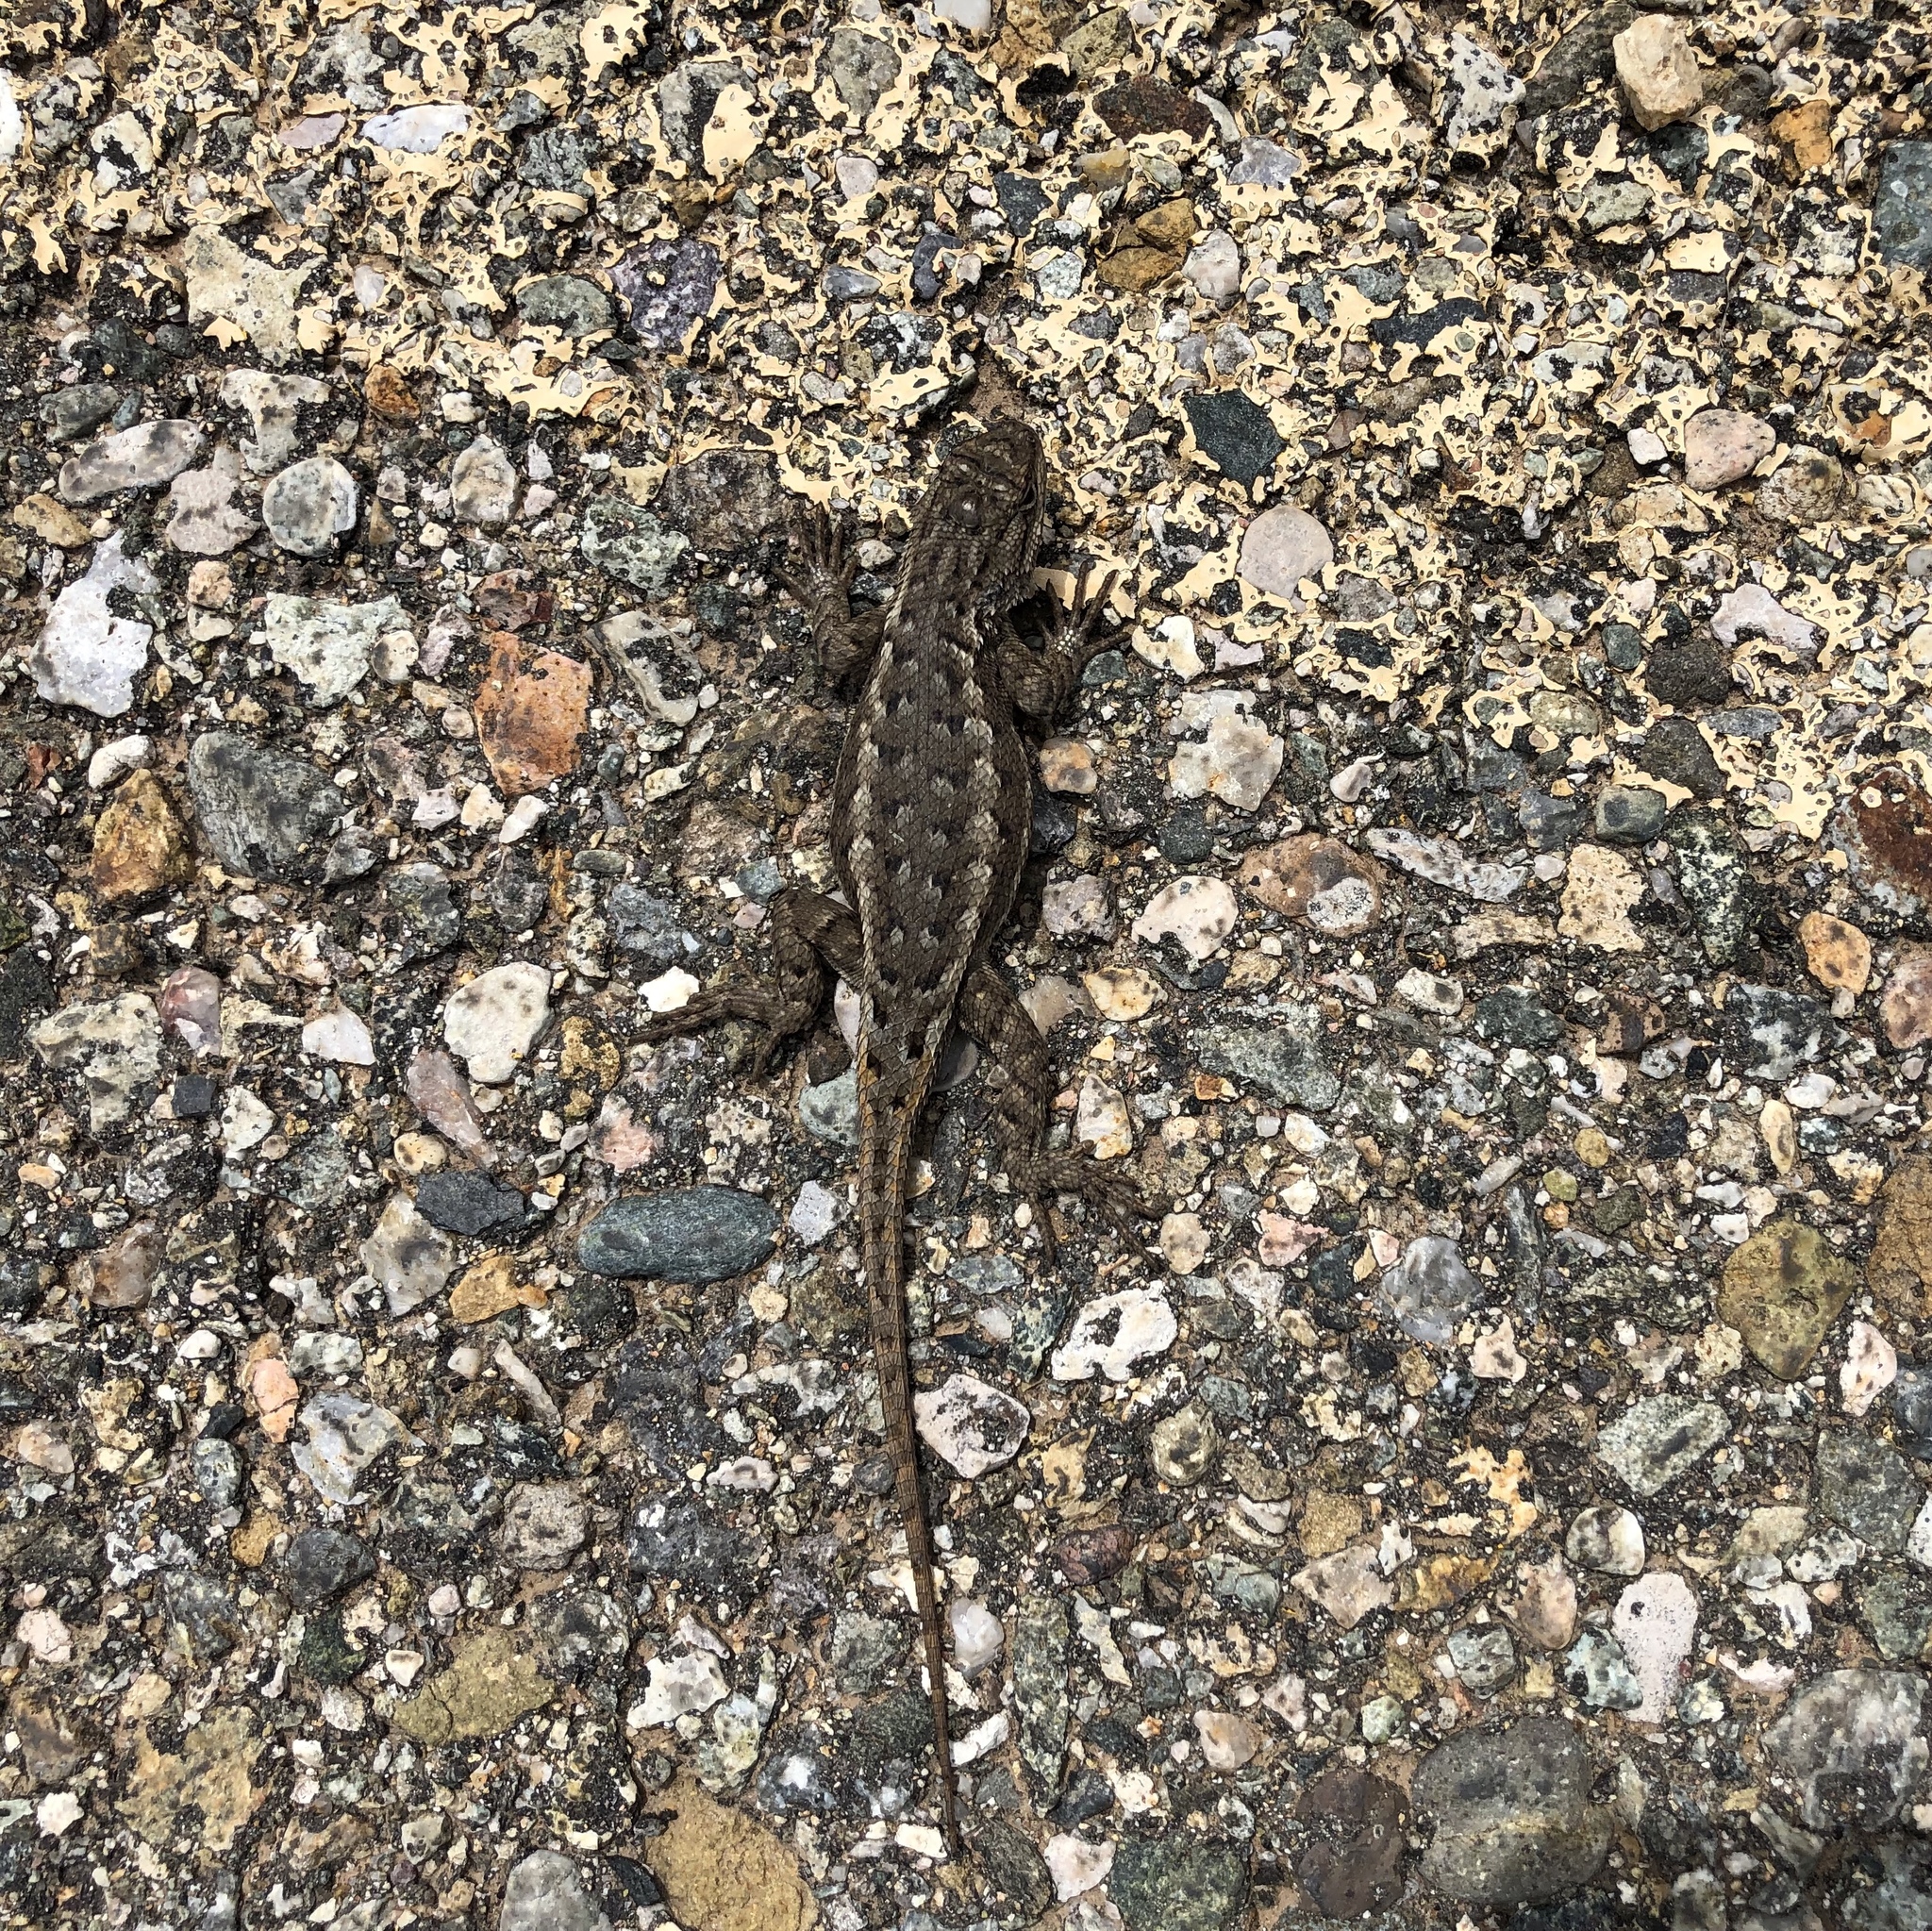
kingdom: Animalia
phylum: Chordata
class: Squamata
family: Phrynosomatidae
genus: Sceloporus
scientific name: Sceloporus tristichus
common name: Plateau fence lizard
